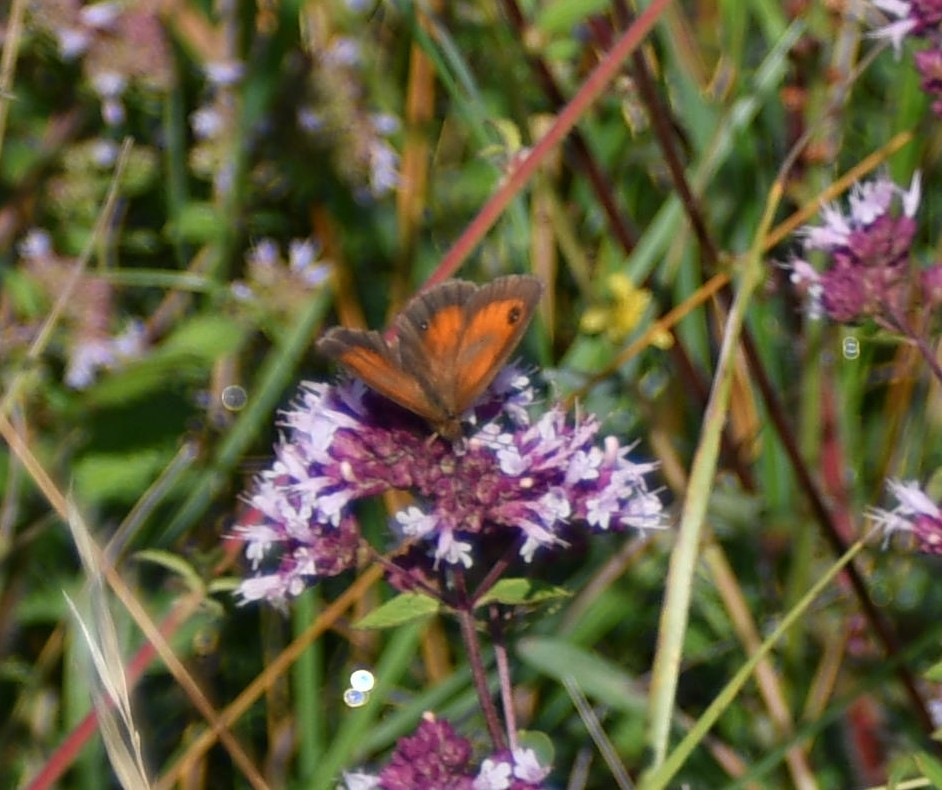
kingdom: Animalia
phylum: Arthropoda
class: Insecta
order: Lepidoptera
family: Nymphalidae
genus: Pyronia
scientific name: Pyronia tithonus
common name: Gatekeeper
